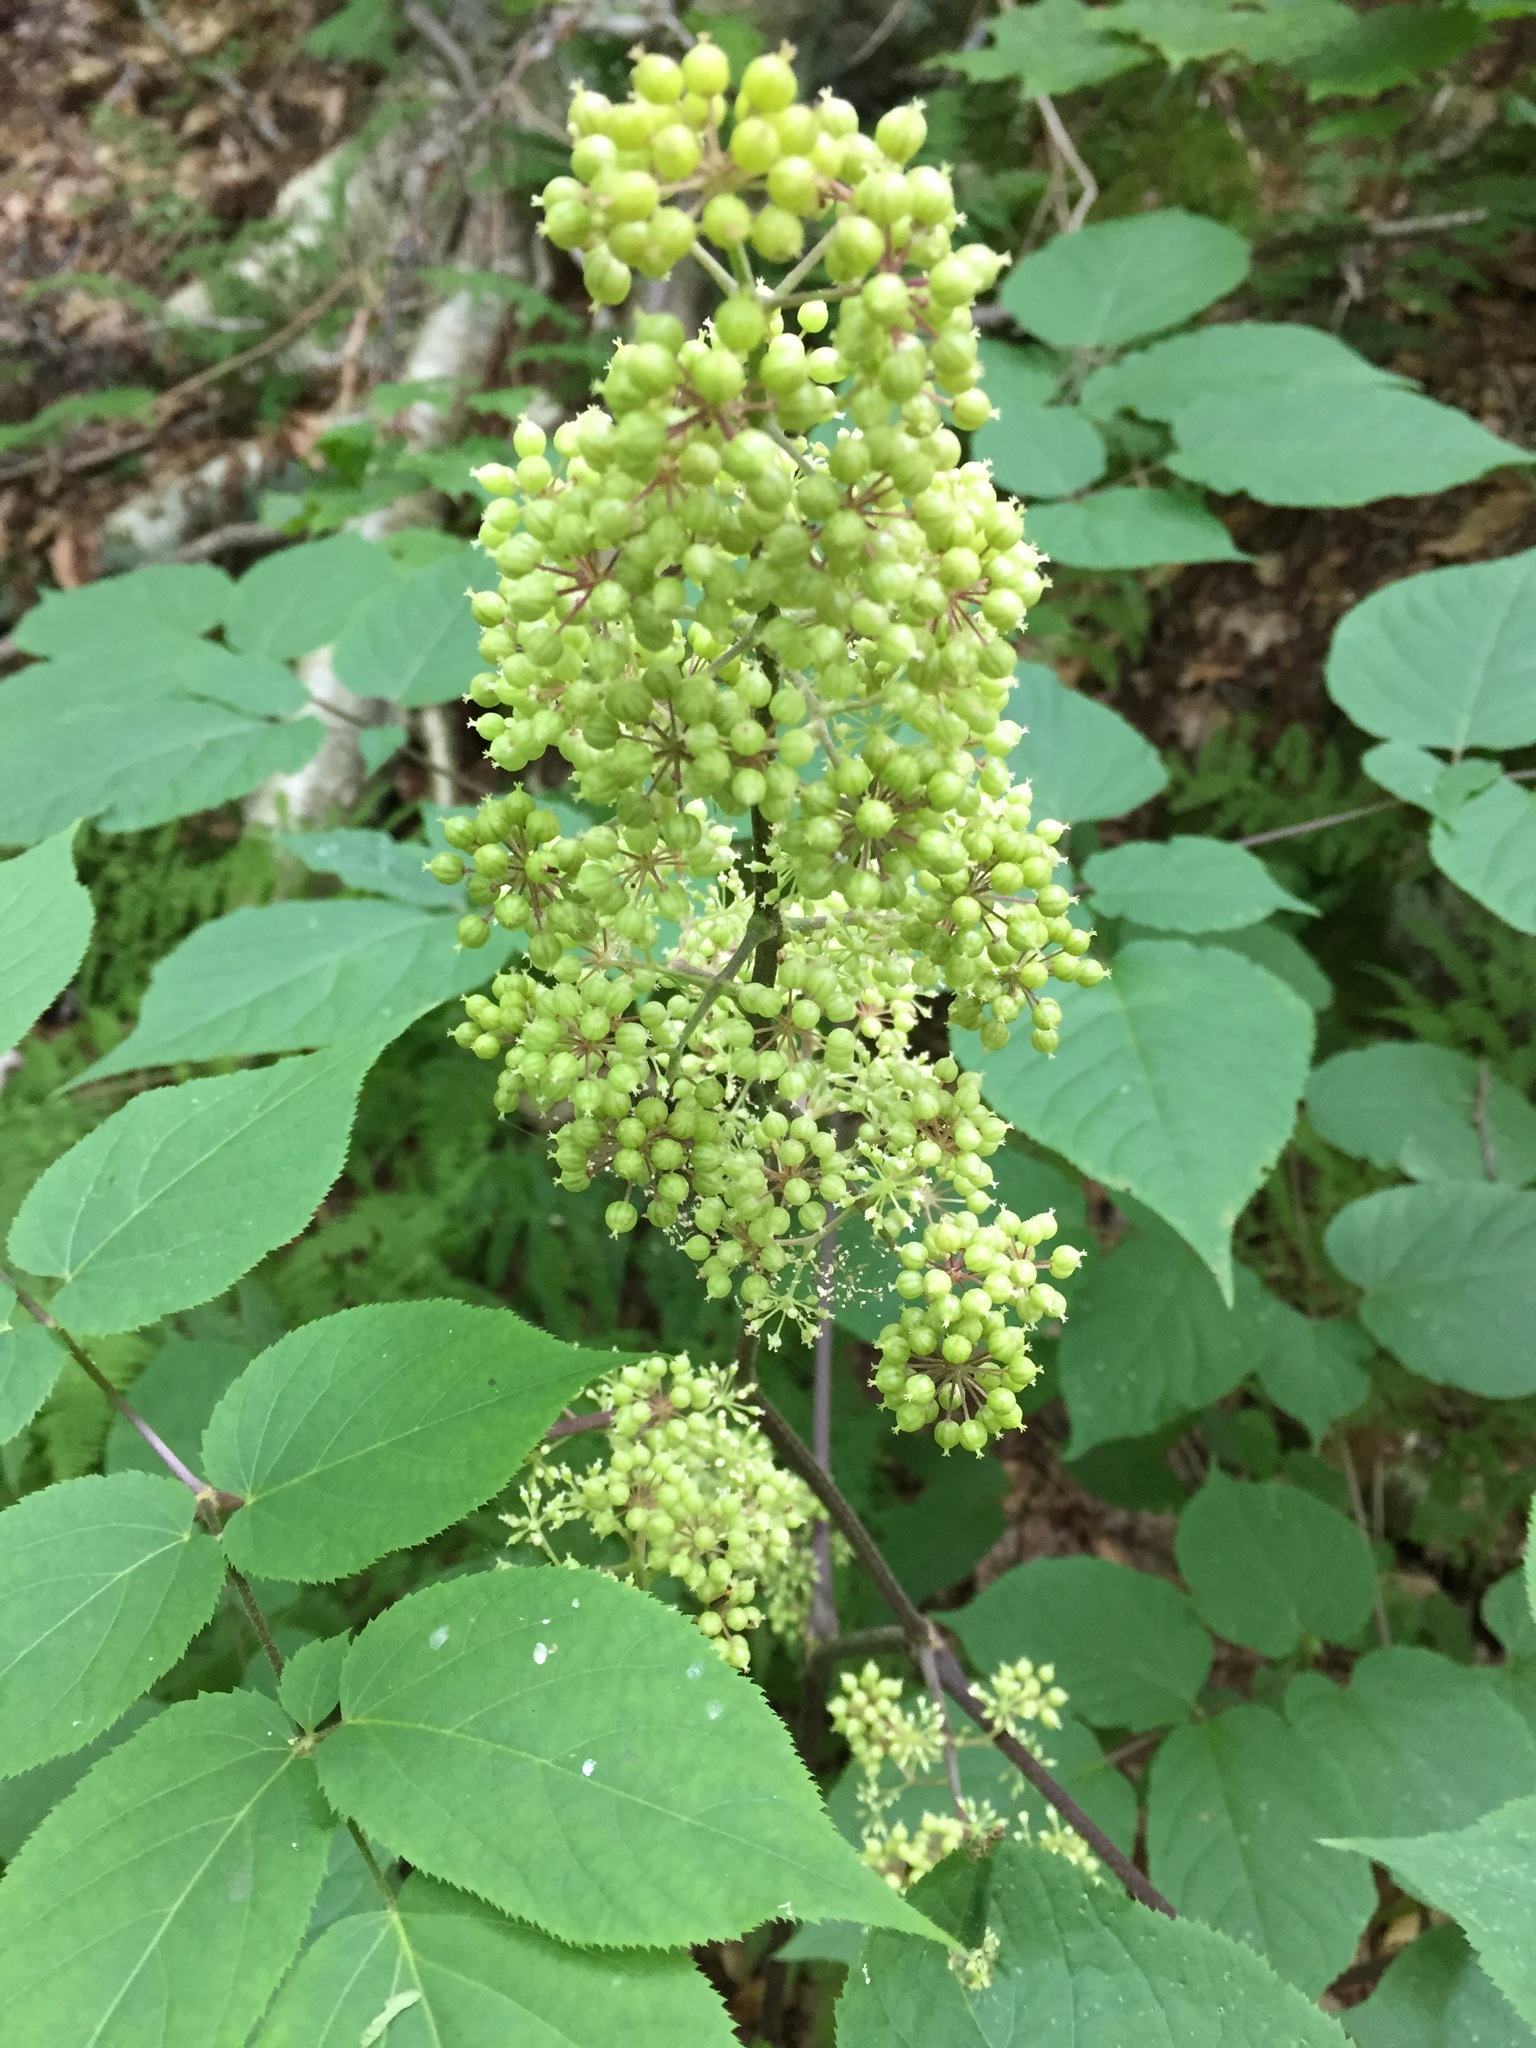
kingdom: Plantae
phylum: Tracheophyta
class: Magnoliopsida
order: Apiales
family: Araliaceae
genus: Aralia
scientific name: Aralia racemosa
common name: American-spikenard
